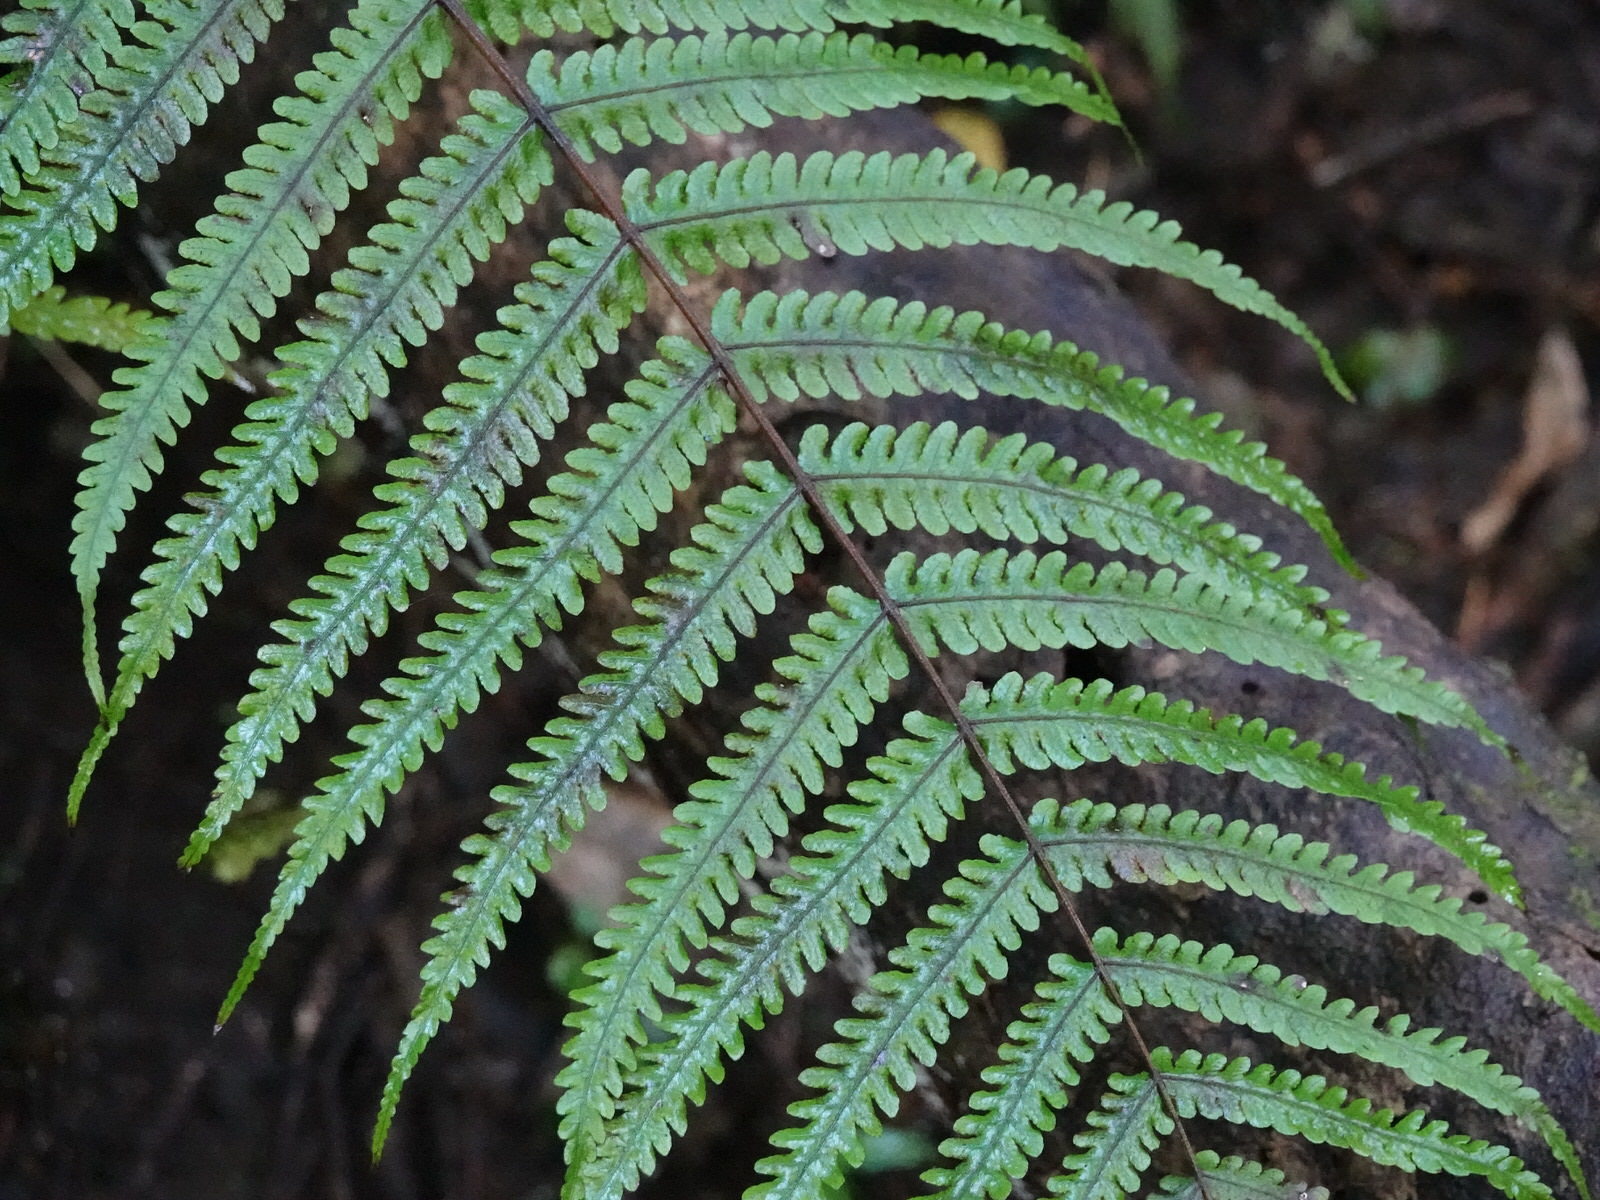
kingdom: Plantae
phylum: Tracheophyta
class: Polypodiopsida
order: Polypodiales
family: Thelypteridaceae
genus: Pakau
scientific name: Pakau pennigera
